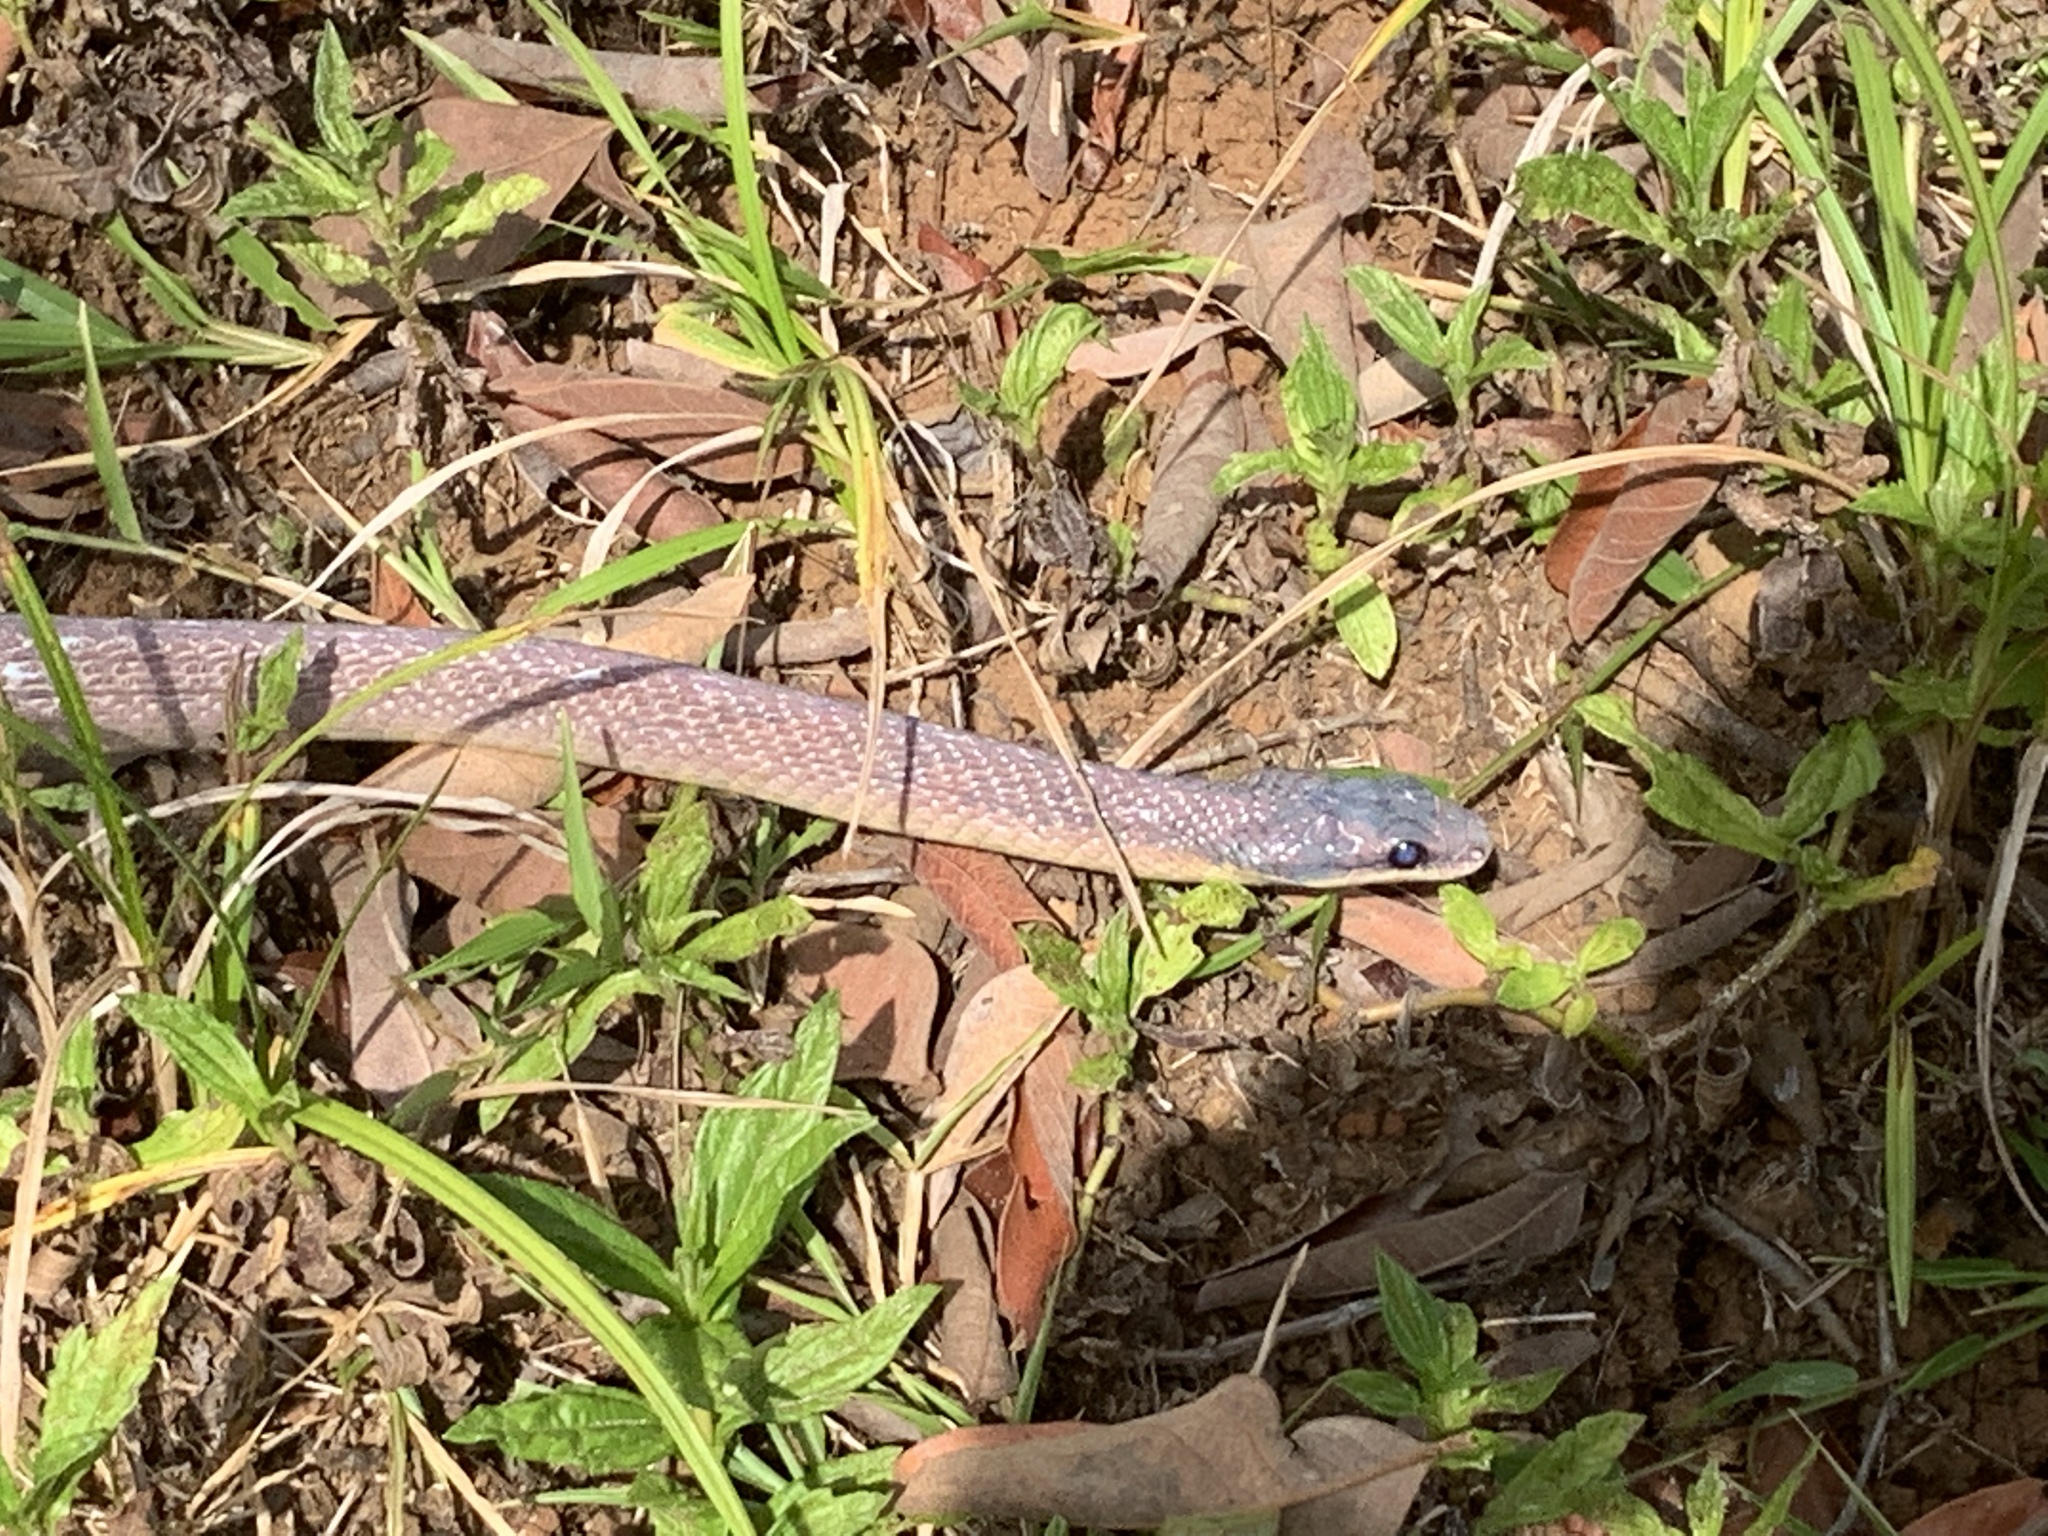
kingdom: Animalia
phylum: Chordata
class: Squamata
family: Colubridae
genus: Phrynonax
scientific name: Phrynonax poecilonotus
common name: Puffing snake
